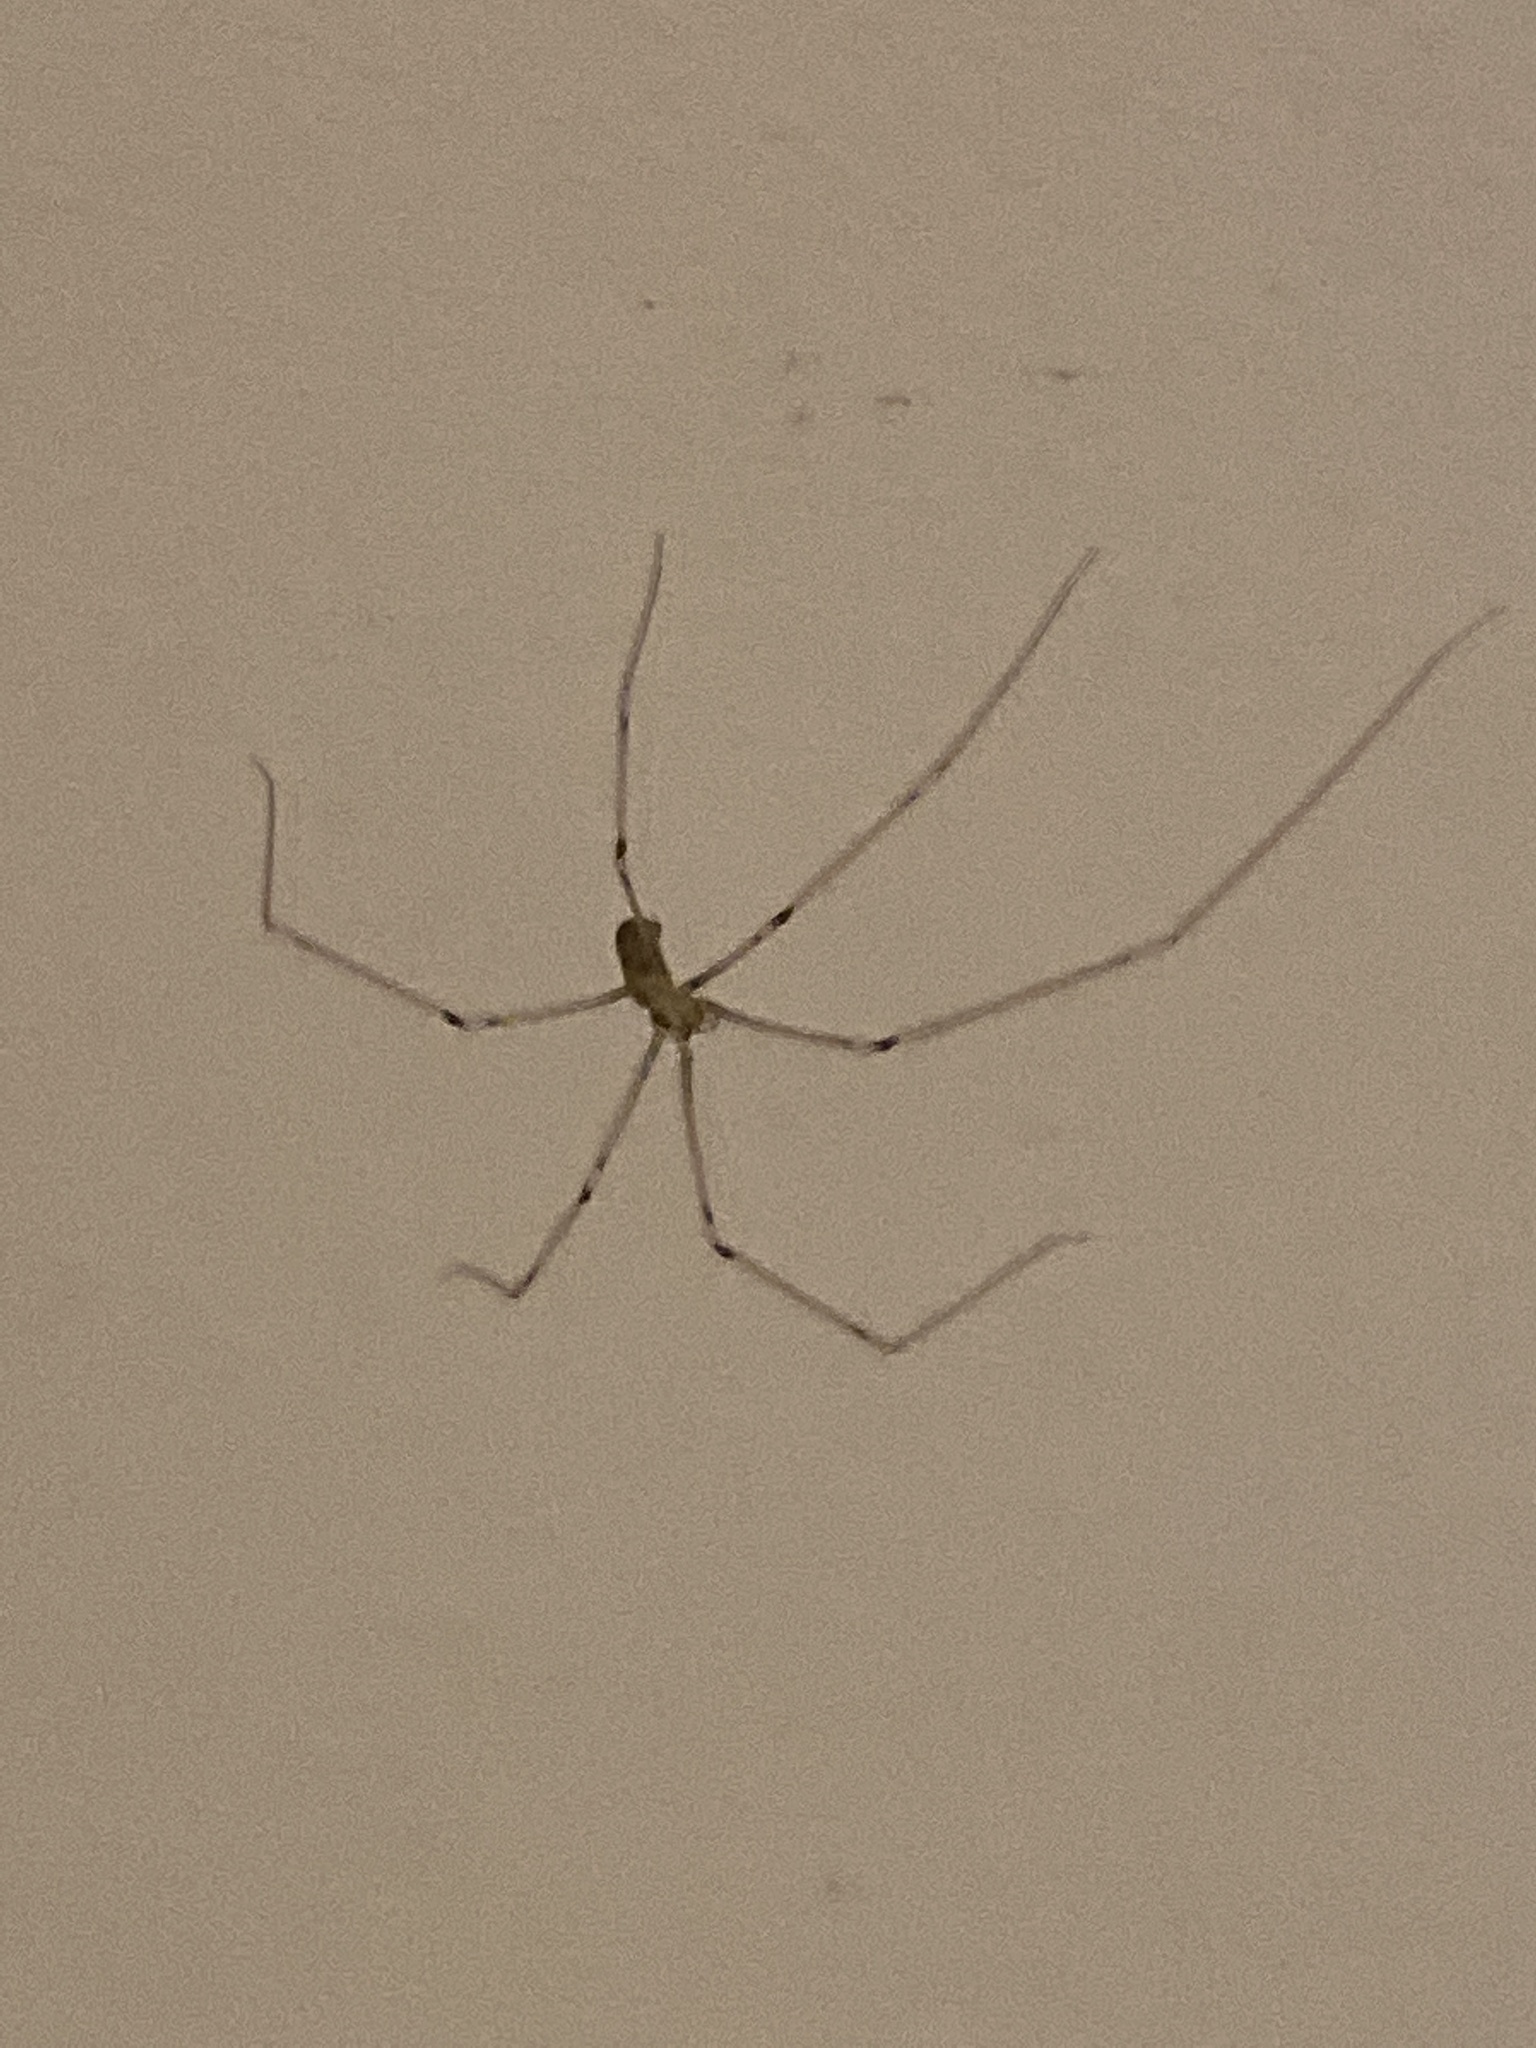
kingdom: Animalia
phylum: Arthropoda
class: Arachnida
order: Araneae
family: Pholcidae
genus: Pholcus
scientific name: Pholcus phalangioides
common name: Longbodied cellar spider
